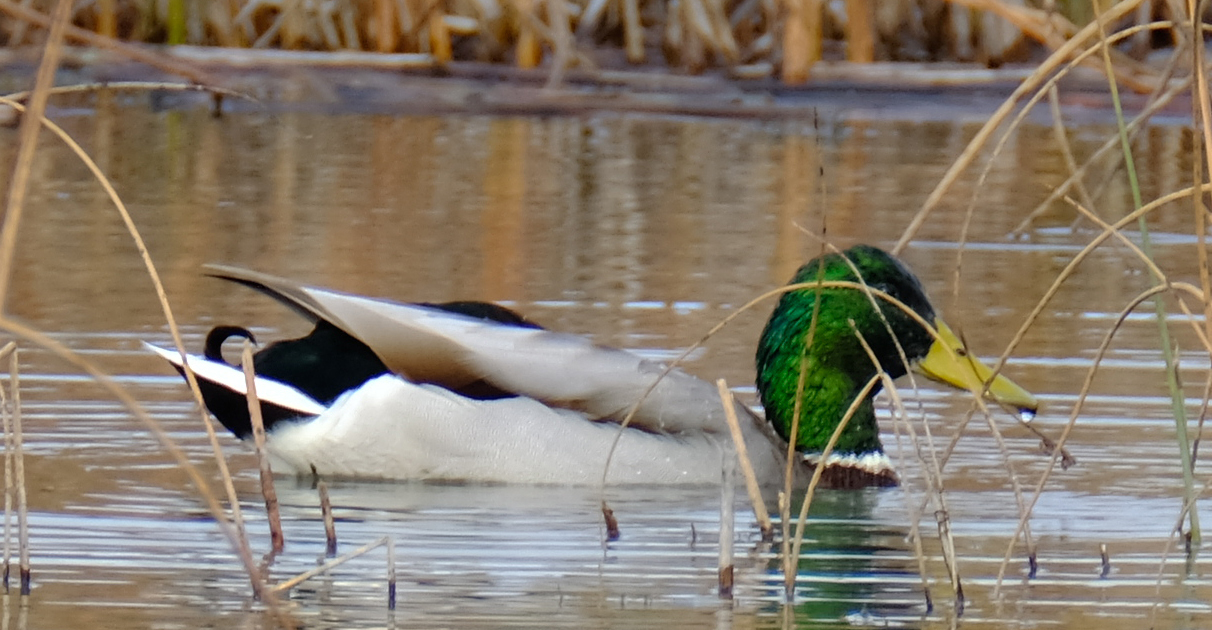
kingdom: Animalia
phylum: Chordata
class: Aves
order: Anseriformes
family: Anatidae
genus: Anas
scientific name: Anas platyrhynchos
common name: Mallard
